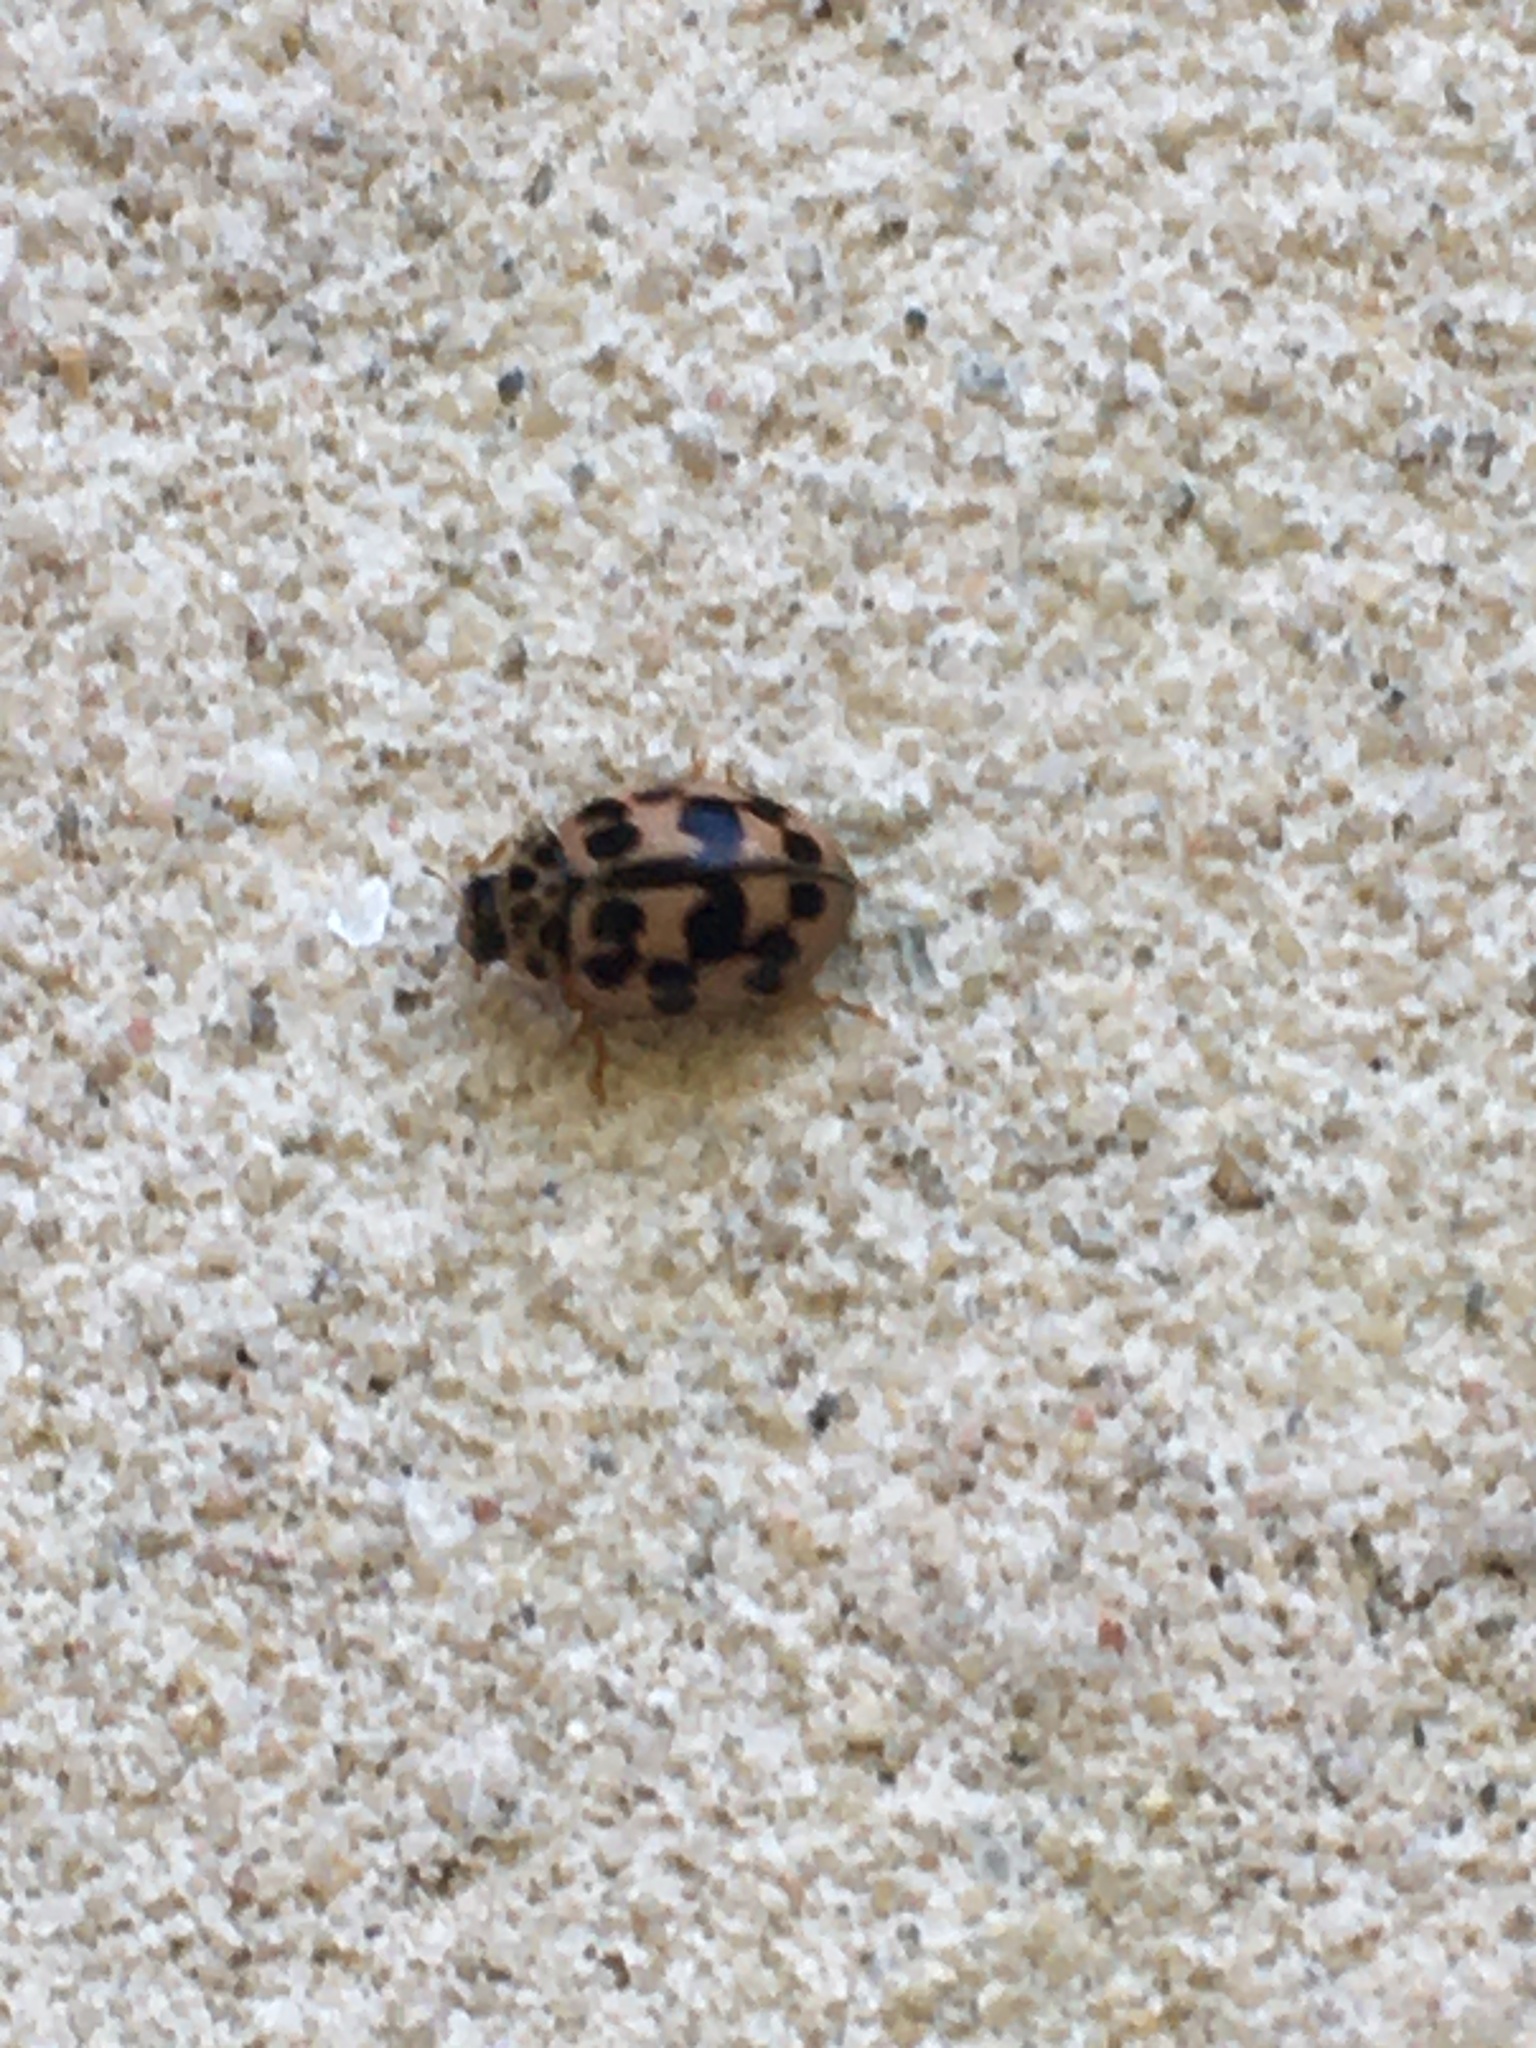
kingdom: Animalia
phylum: Arthropoda
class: Insecta
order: Coleoptera
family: Coccinellidae
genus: Oenopia
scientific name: Oenopia conglobata
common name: Ladybird beetle
